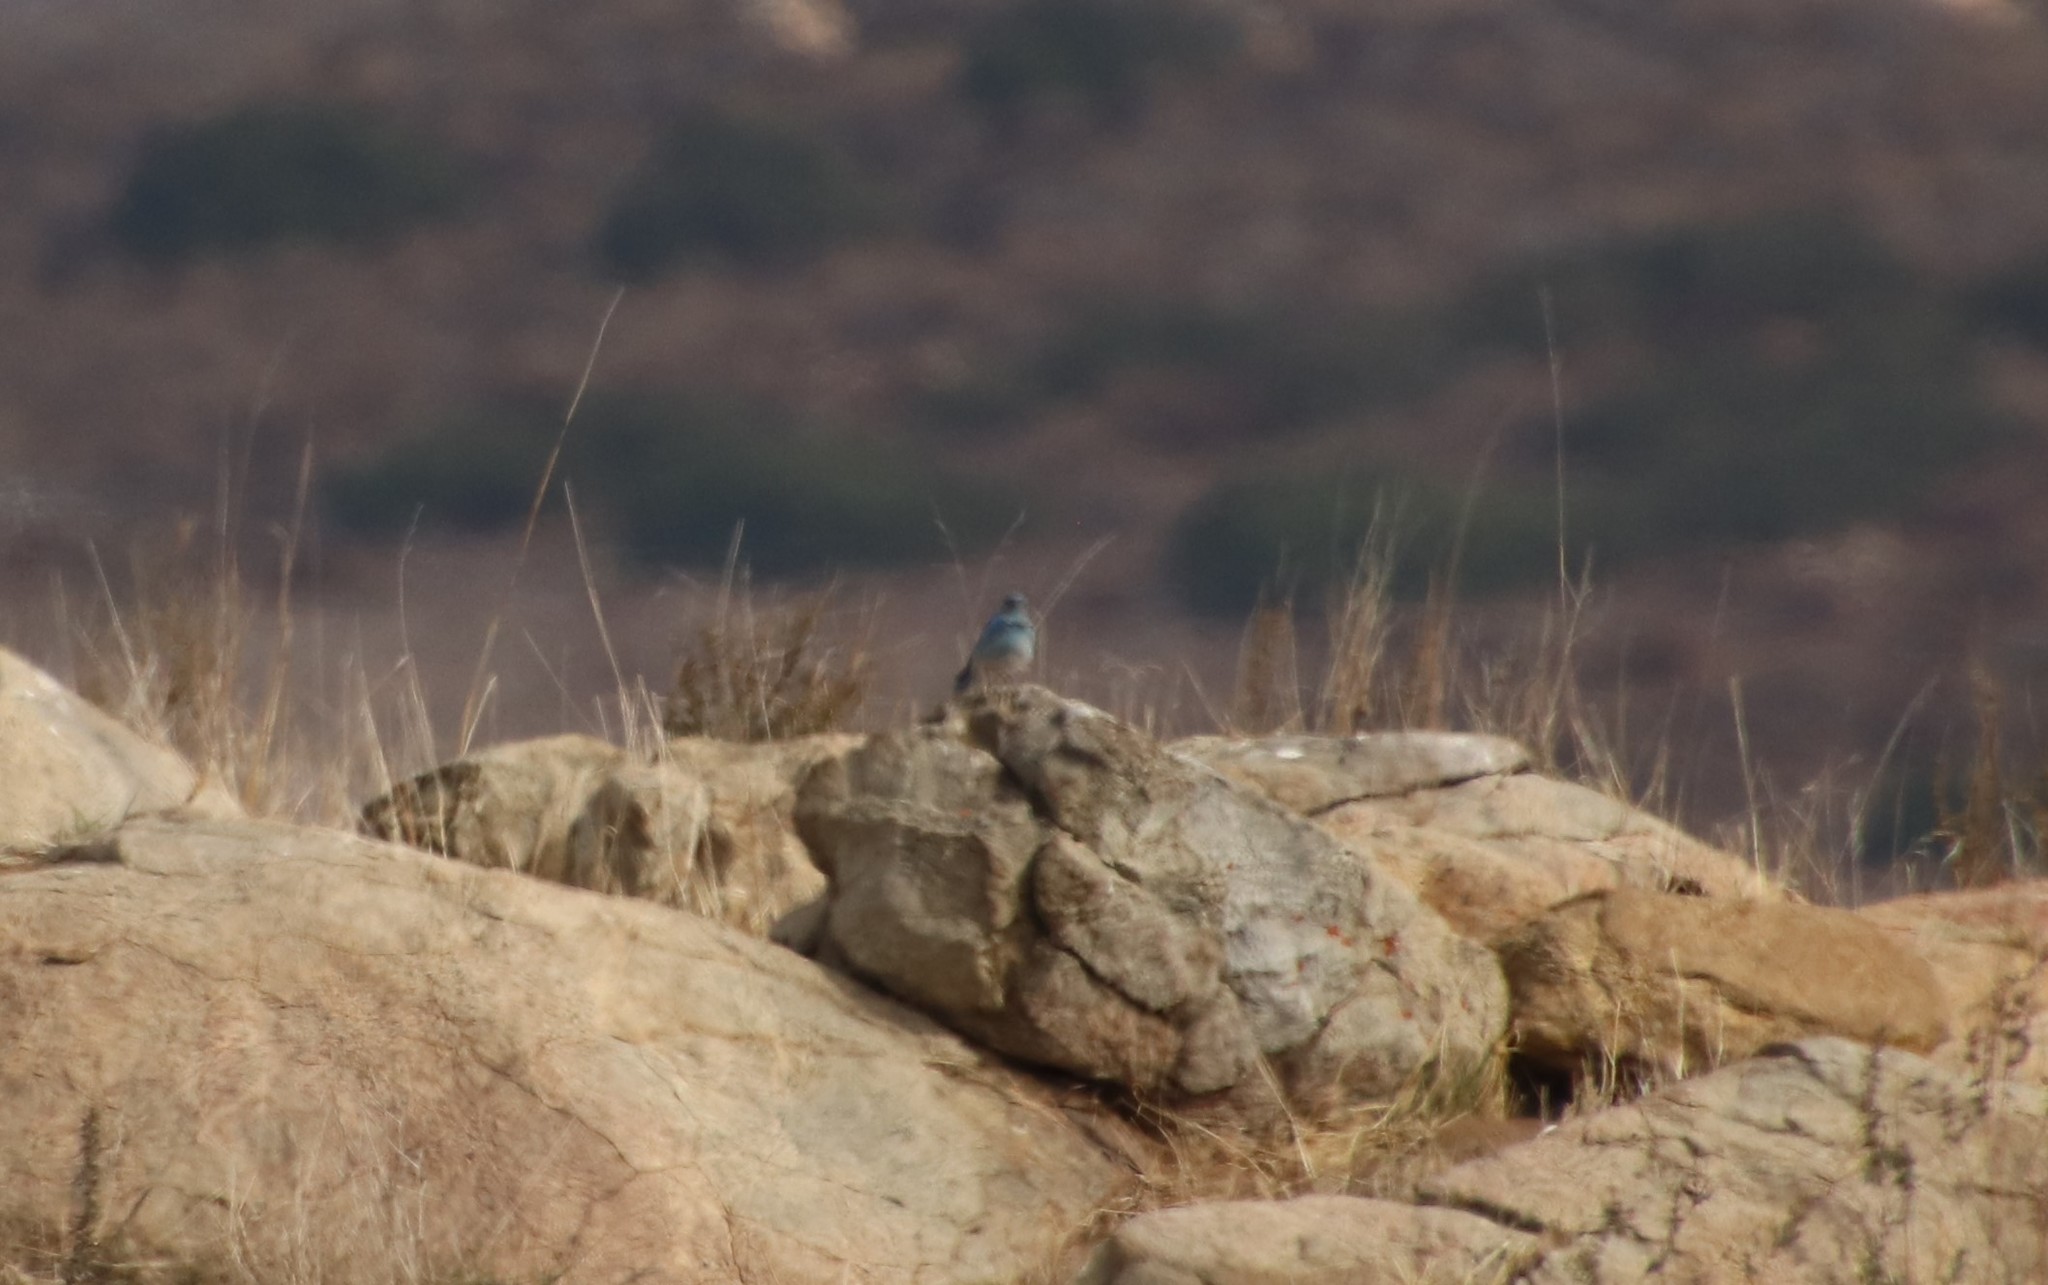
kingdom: Animalia
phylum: Chordata
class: Aves
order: Passeriformes
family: Turdidae
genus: Sialia
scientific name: Sialia currucoides
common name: Mountain bluebird
